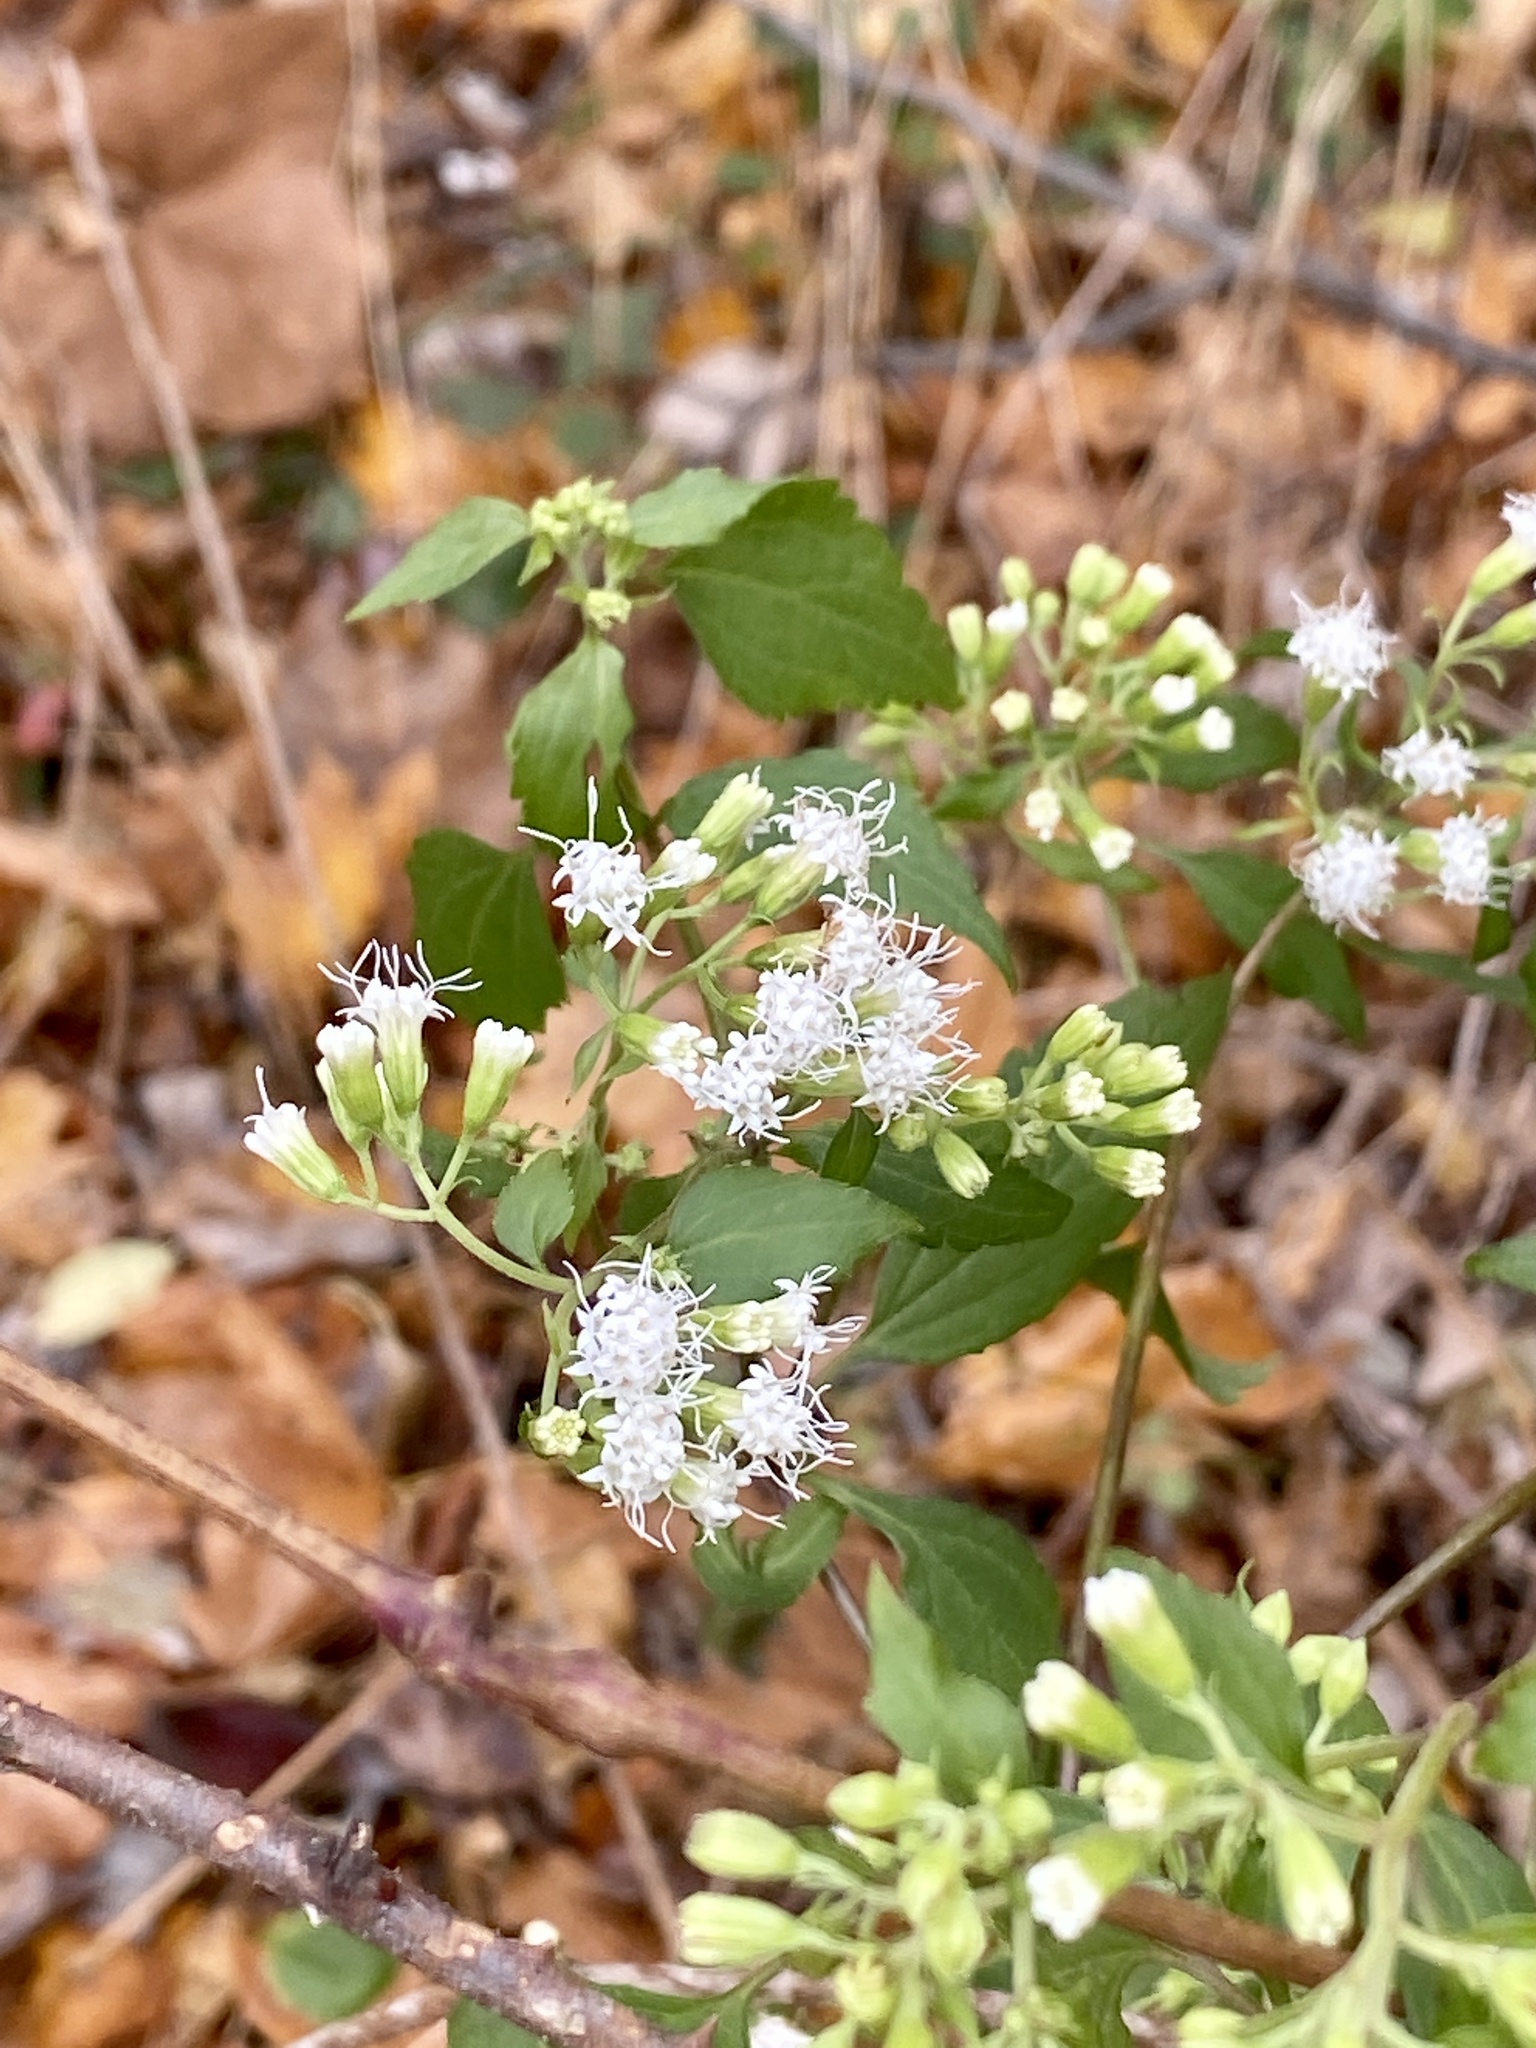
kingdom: Plantae
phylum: Tracheophyta
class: Magnoliopsida
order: Asterales
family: Asteraceae
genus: Ageratina
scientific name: Ageratina altissima
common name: White snakeroot
